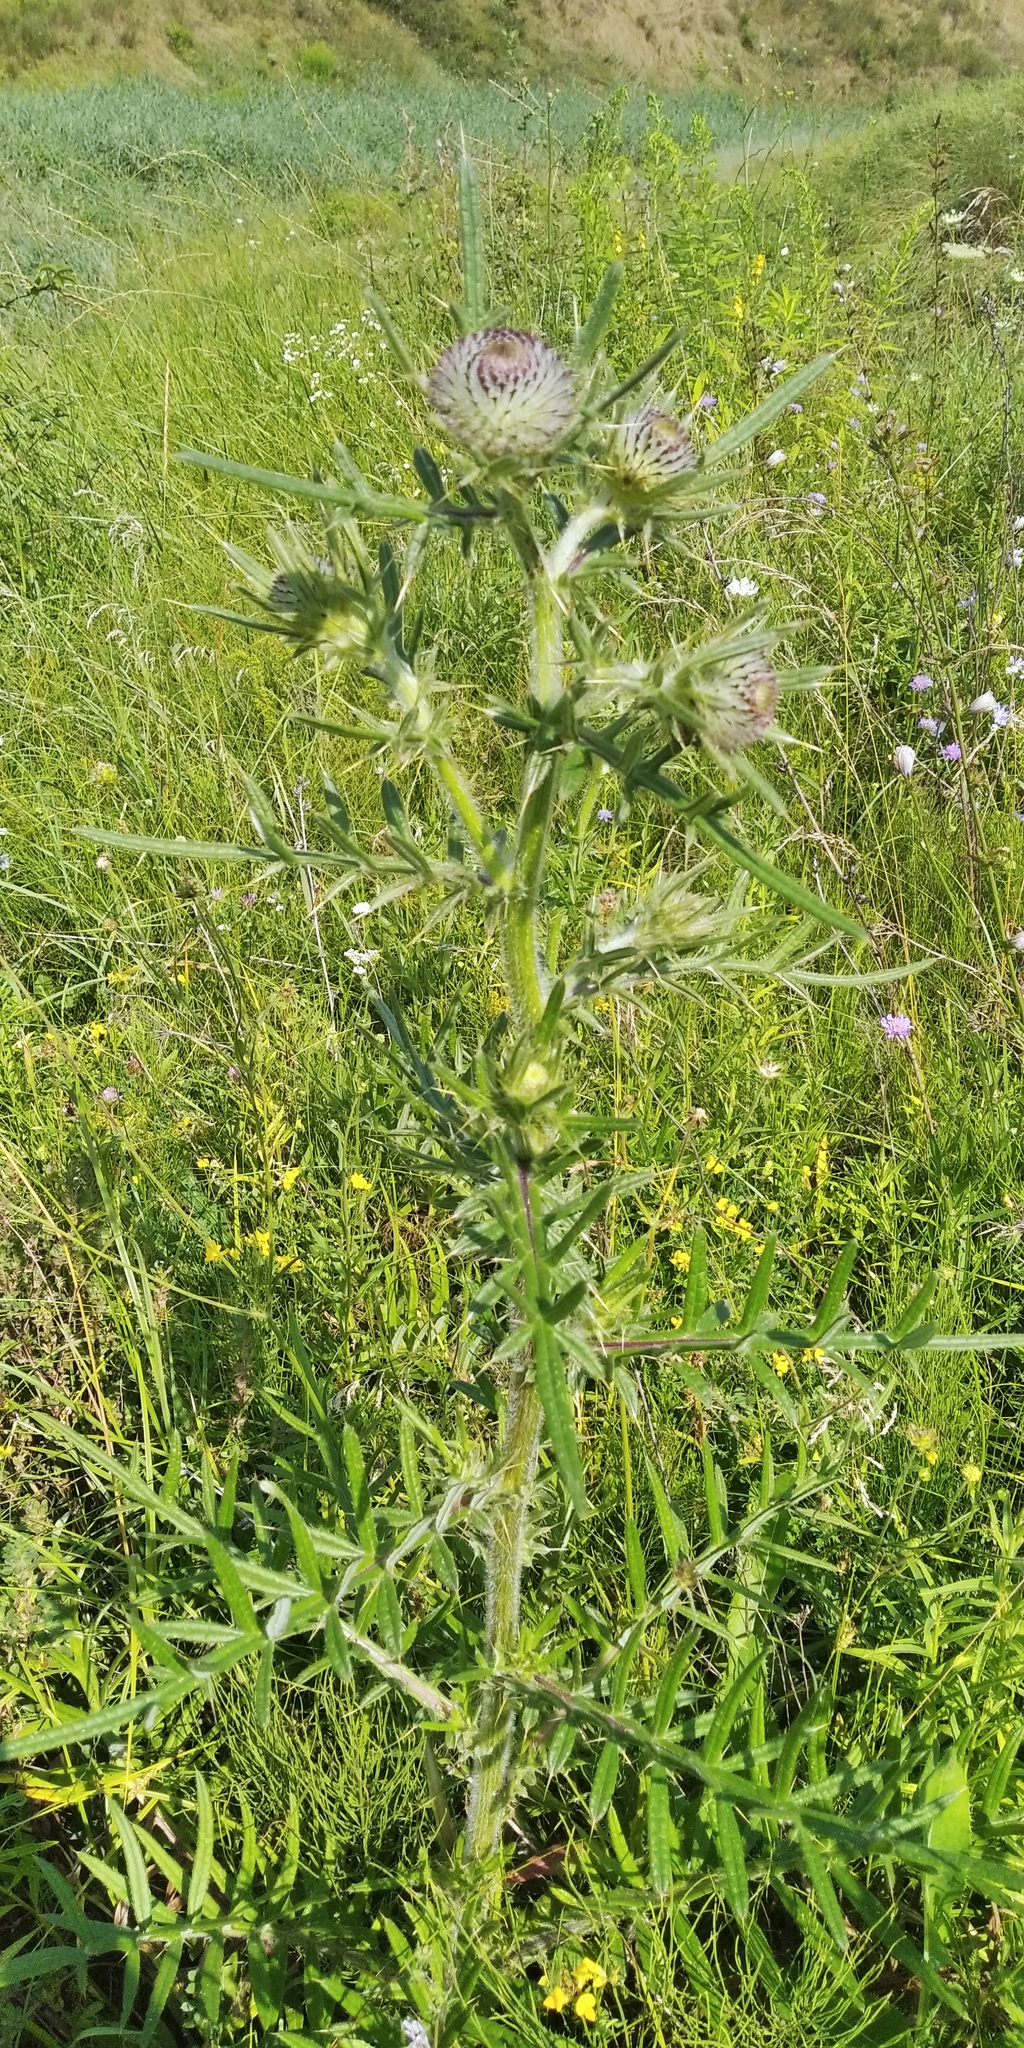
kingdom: Plantae
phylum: Tracheophyta
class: Magnoliopsida
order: Asterales
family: Asteraceae
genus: Lophiolepis
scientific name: Lophiolepis decussata
